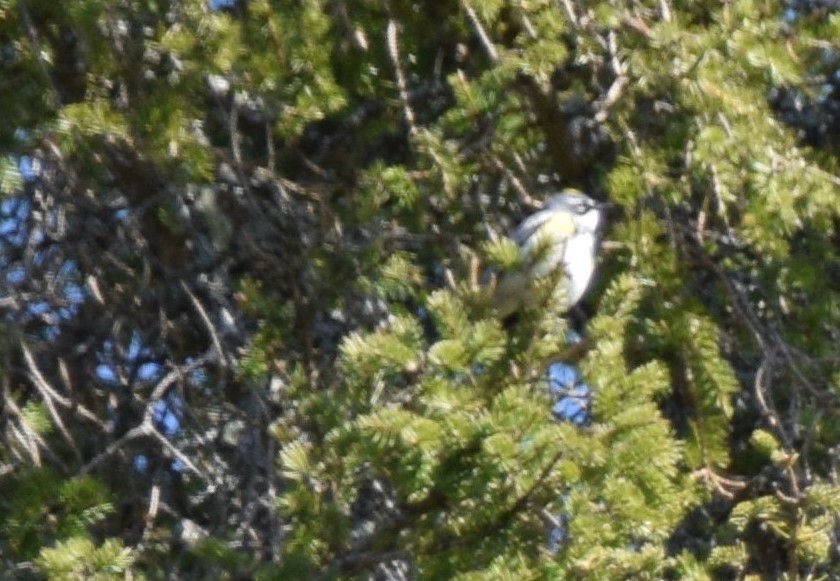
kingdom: Animalia
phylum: Chordata
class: Aves
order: Passeriformes
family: Parulidae
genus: Setophaga
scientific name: Setophaga coronata
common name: Myrtle warbler
